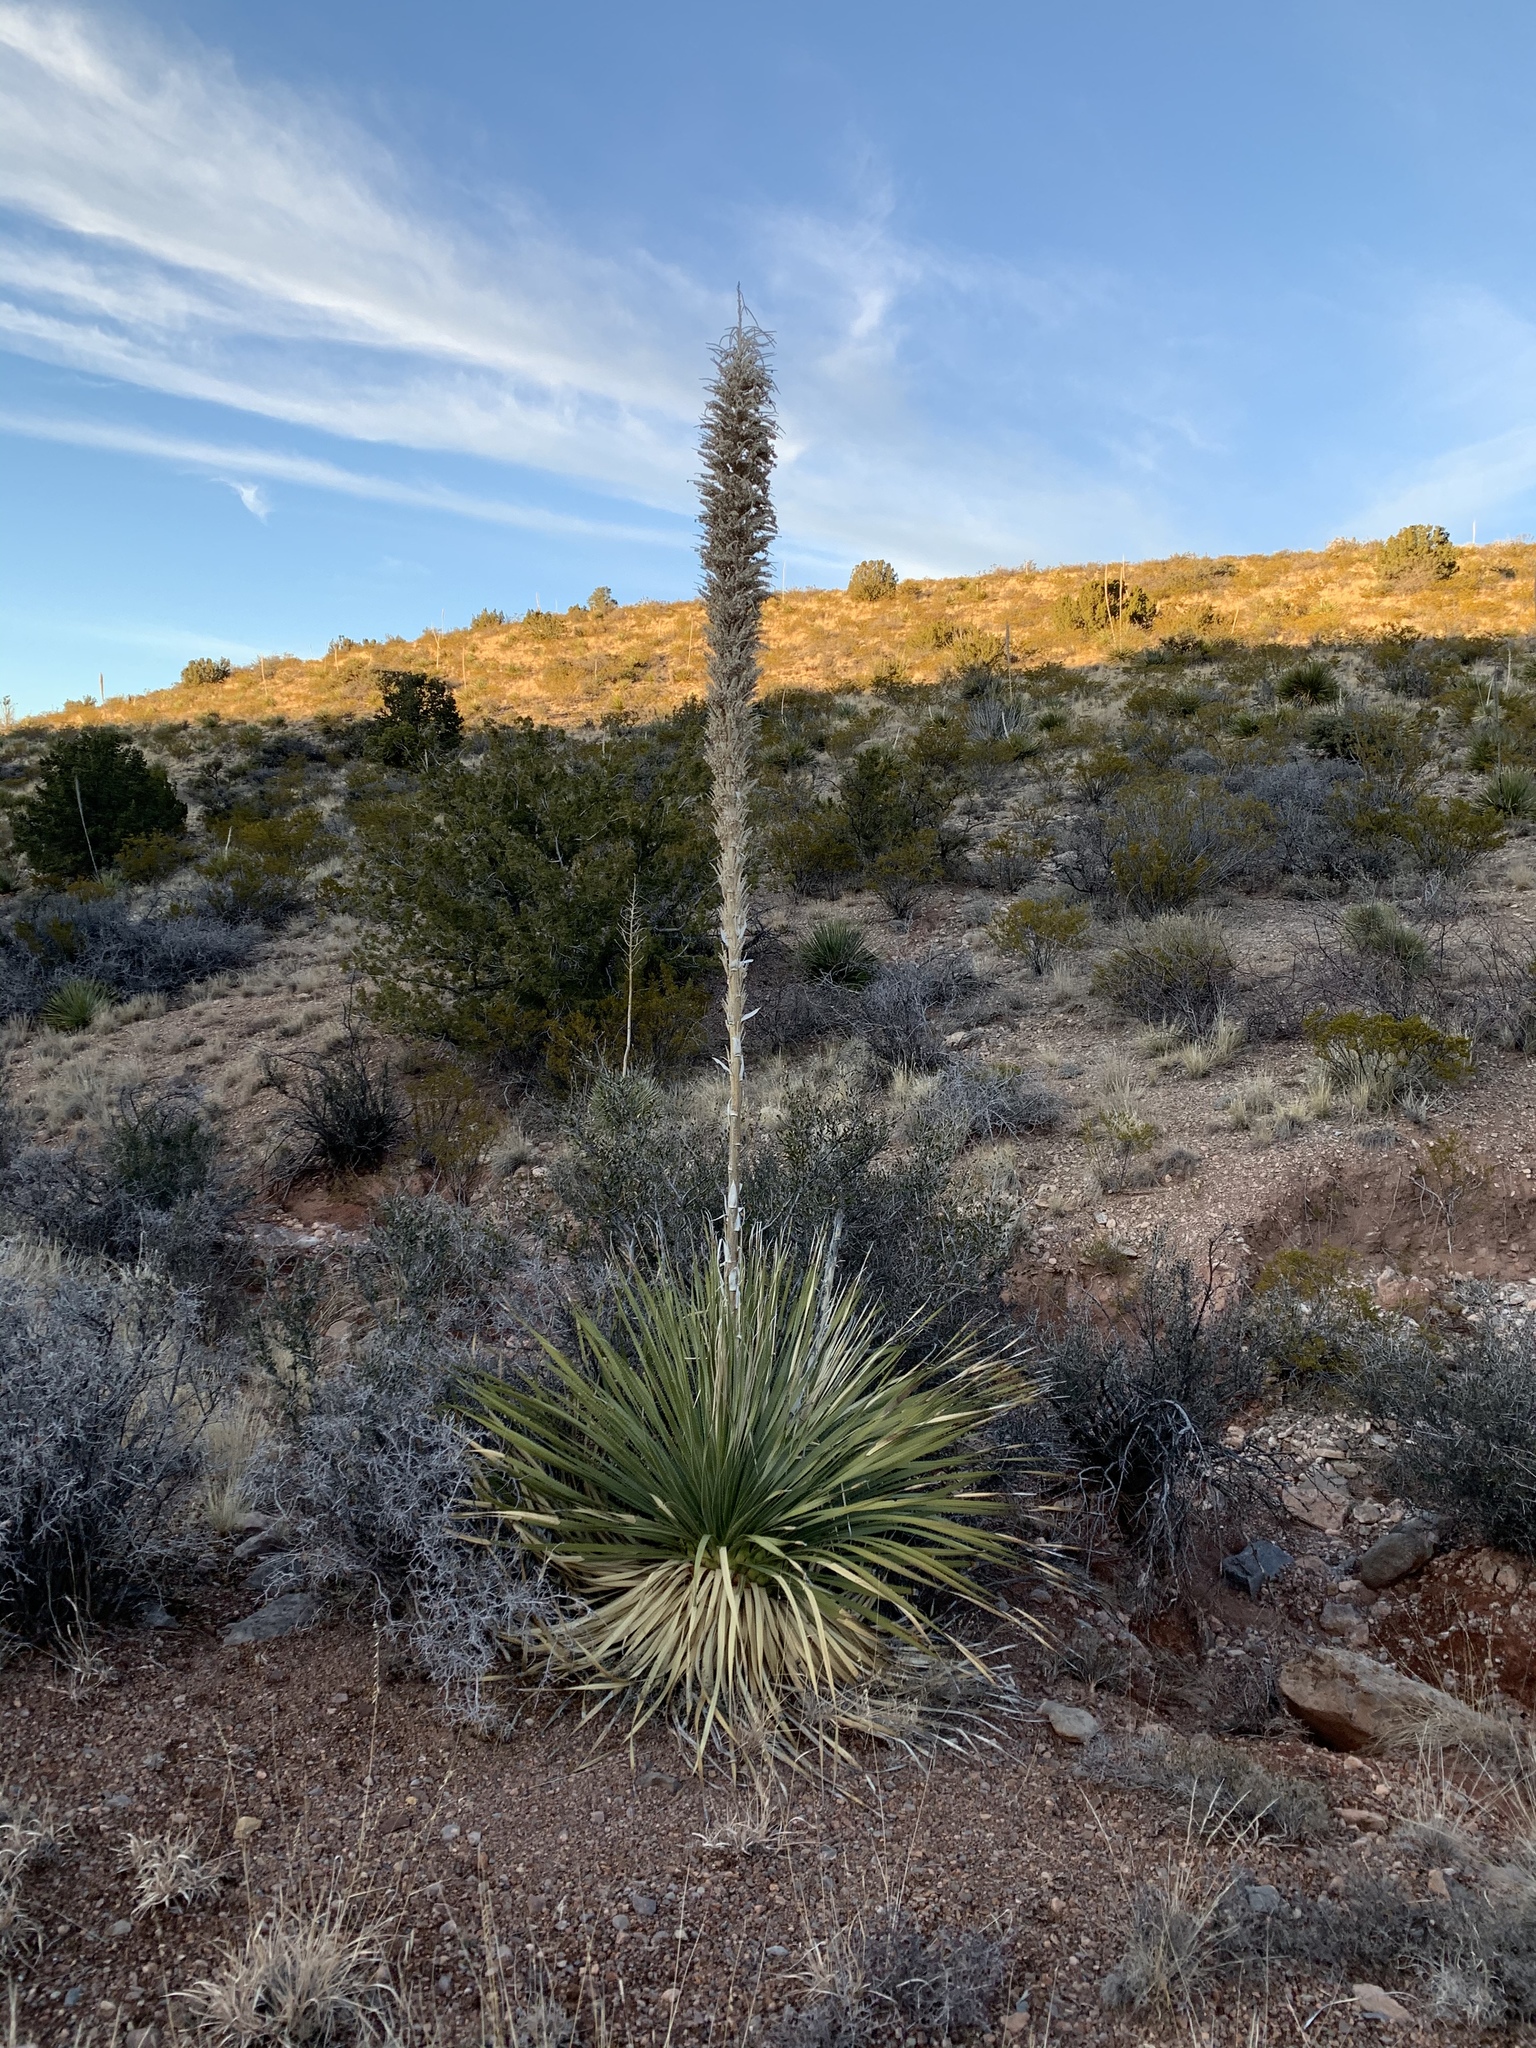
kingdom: Plantae
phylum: Tracheophyta
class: Liliopsida
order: Asparagales
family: Asparagaceae
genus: Dasylirion
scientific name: Dasylirion wheeleri
